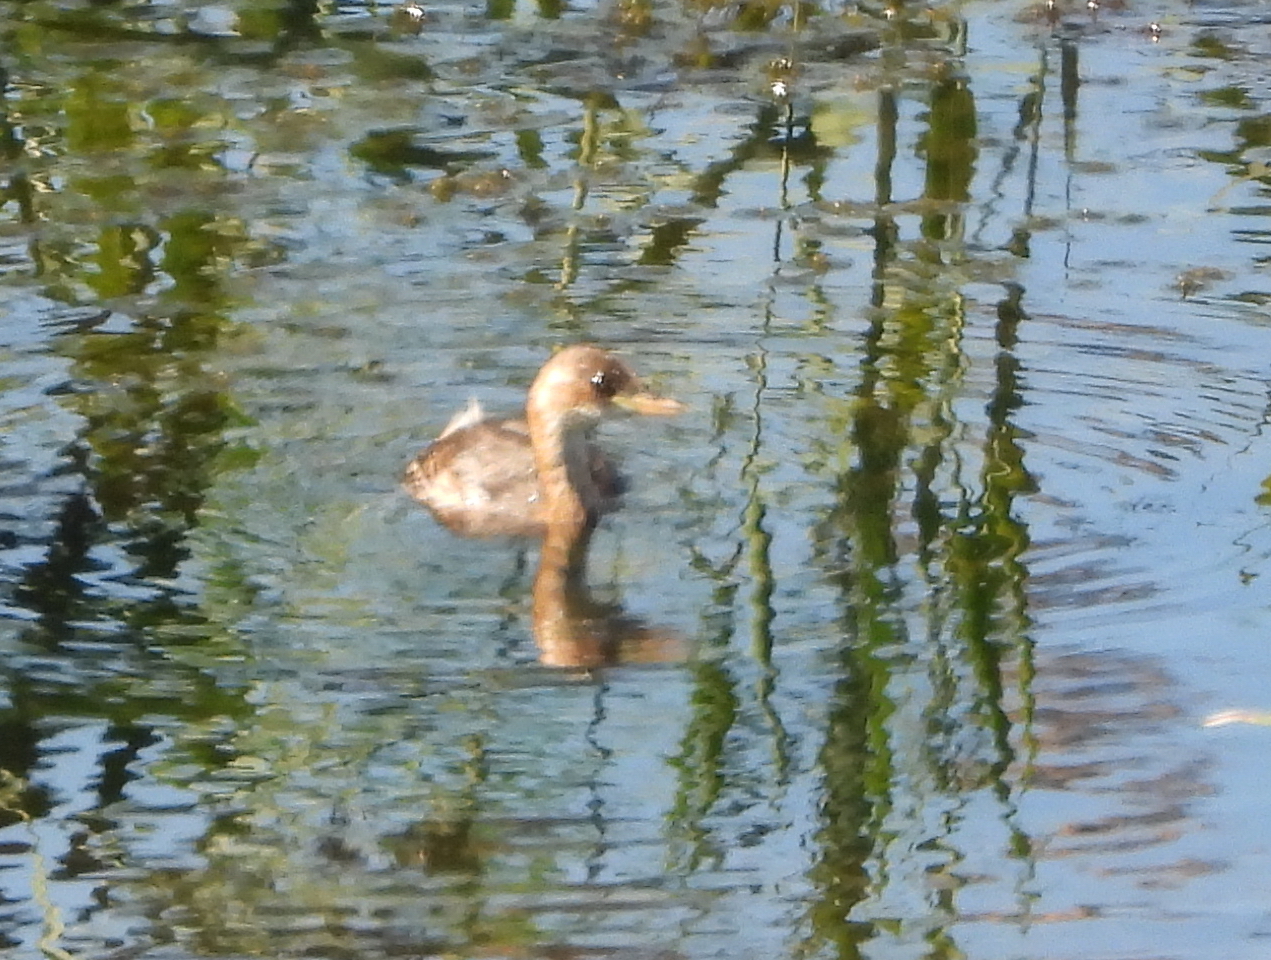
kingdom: Animalia
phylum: Chordata
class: Aves
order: Podicipediformes
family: Podicipedidae
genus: Tachybaptus
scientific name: Tachybaptus ruficollis
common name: Little grebe
